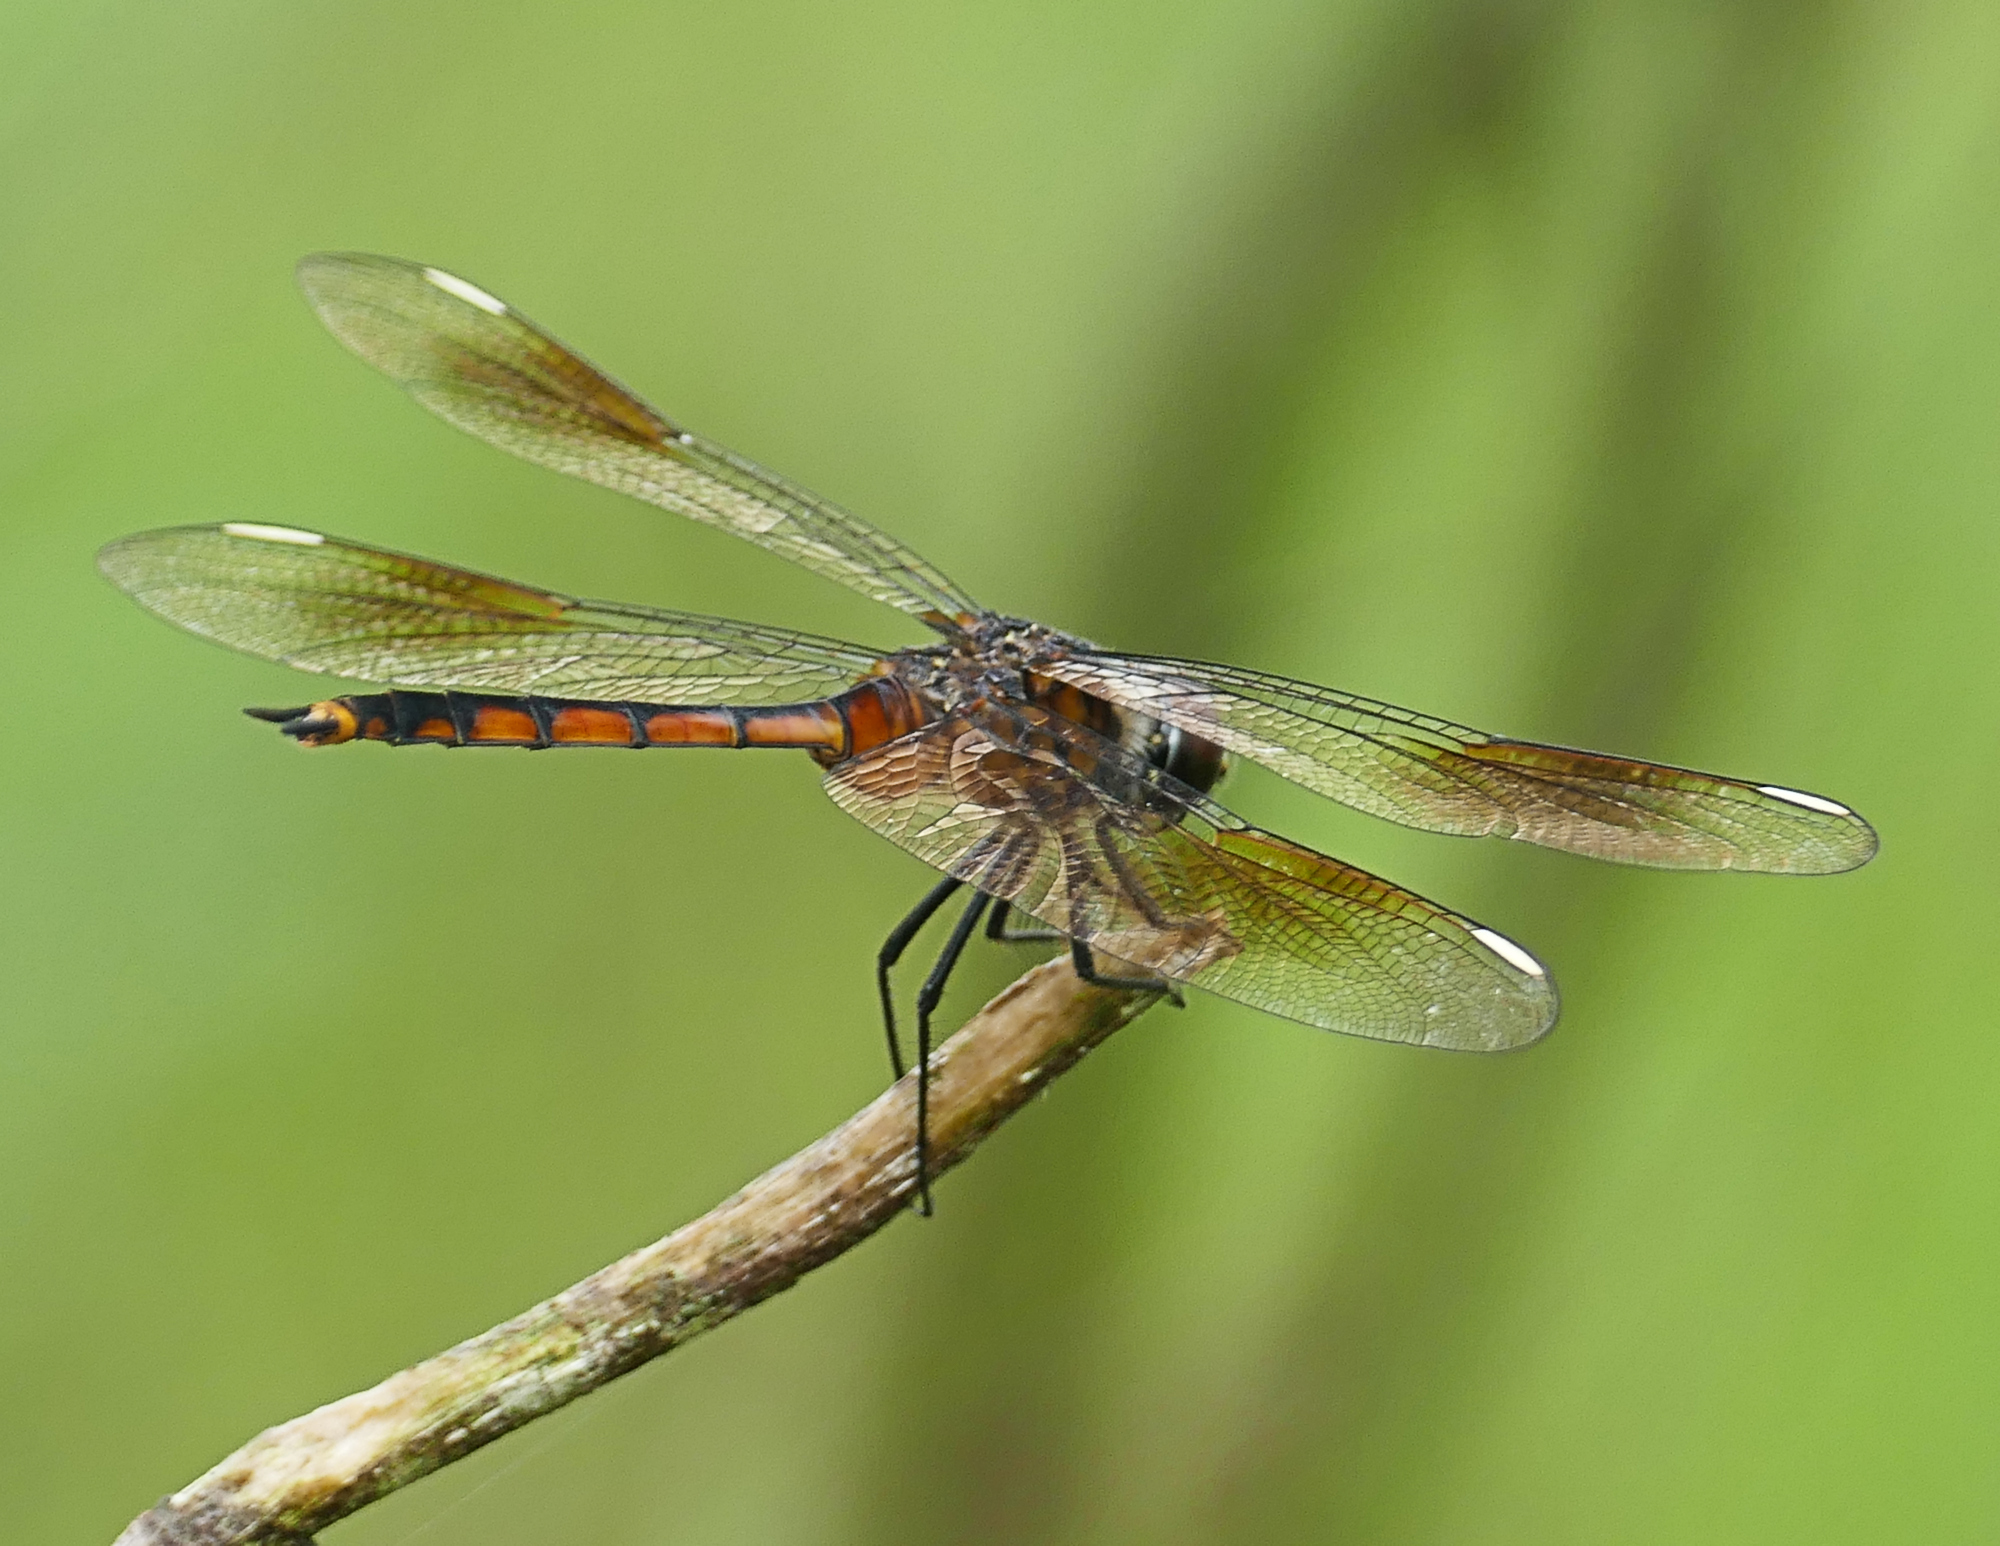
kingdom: Animalia
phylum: Arthropoda
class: Insecta
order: Odonata
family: Libellulidae
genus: Brachymesia
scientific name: Brachymesia gravida
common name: Four-spotted pennant
